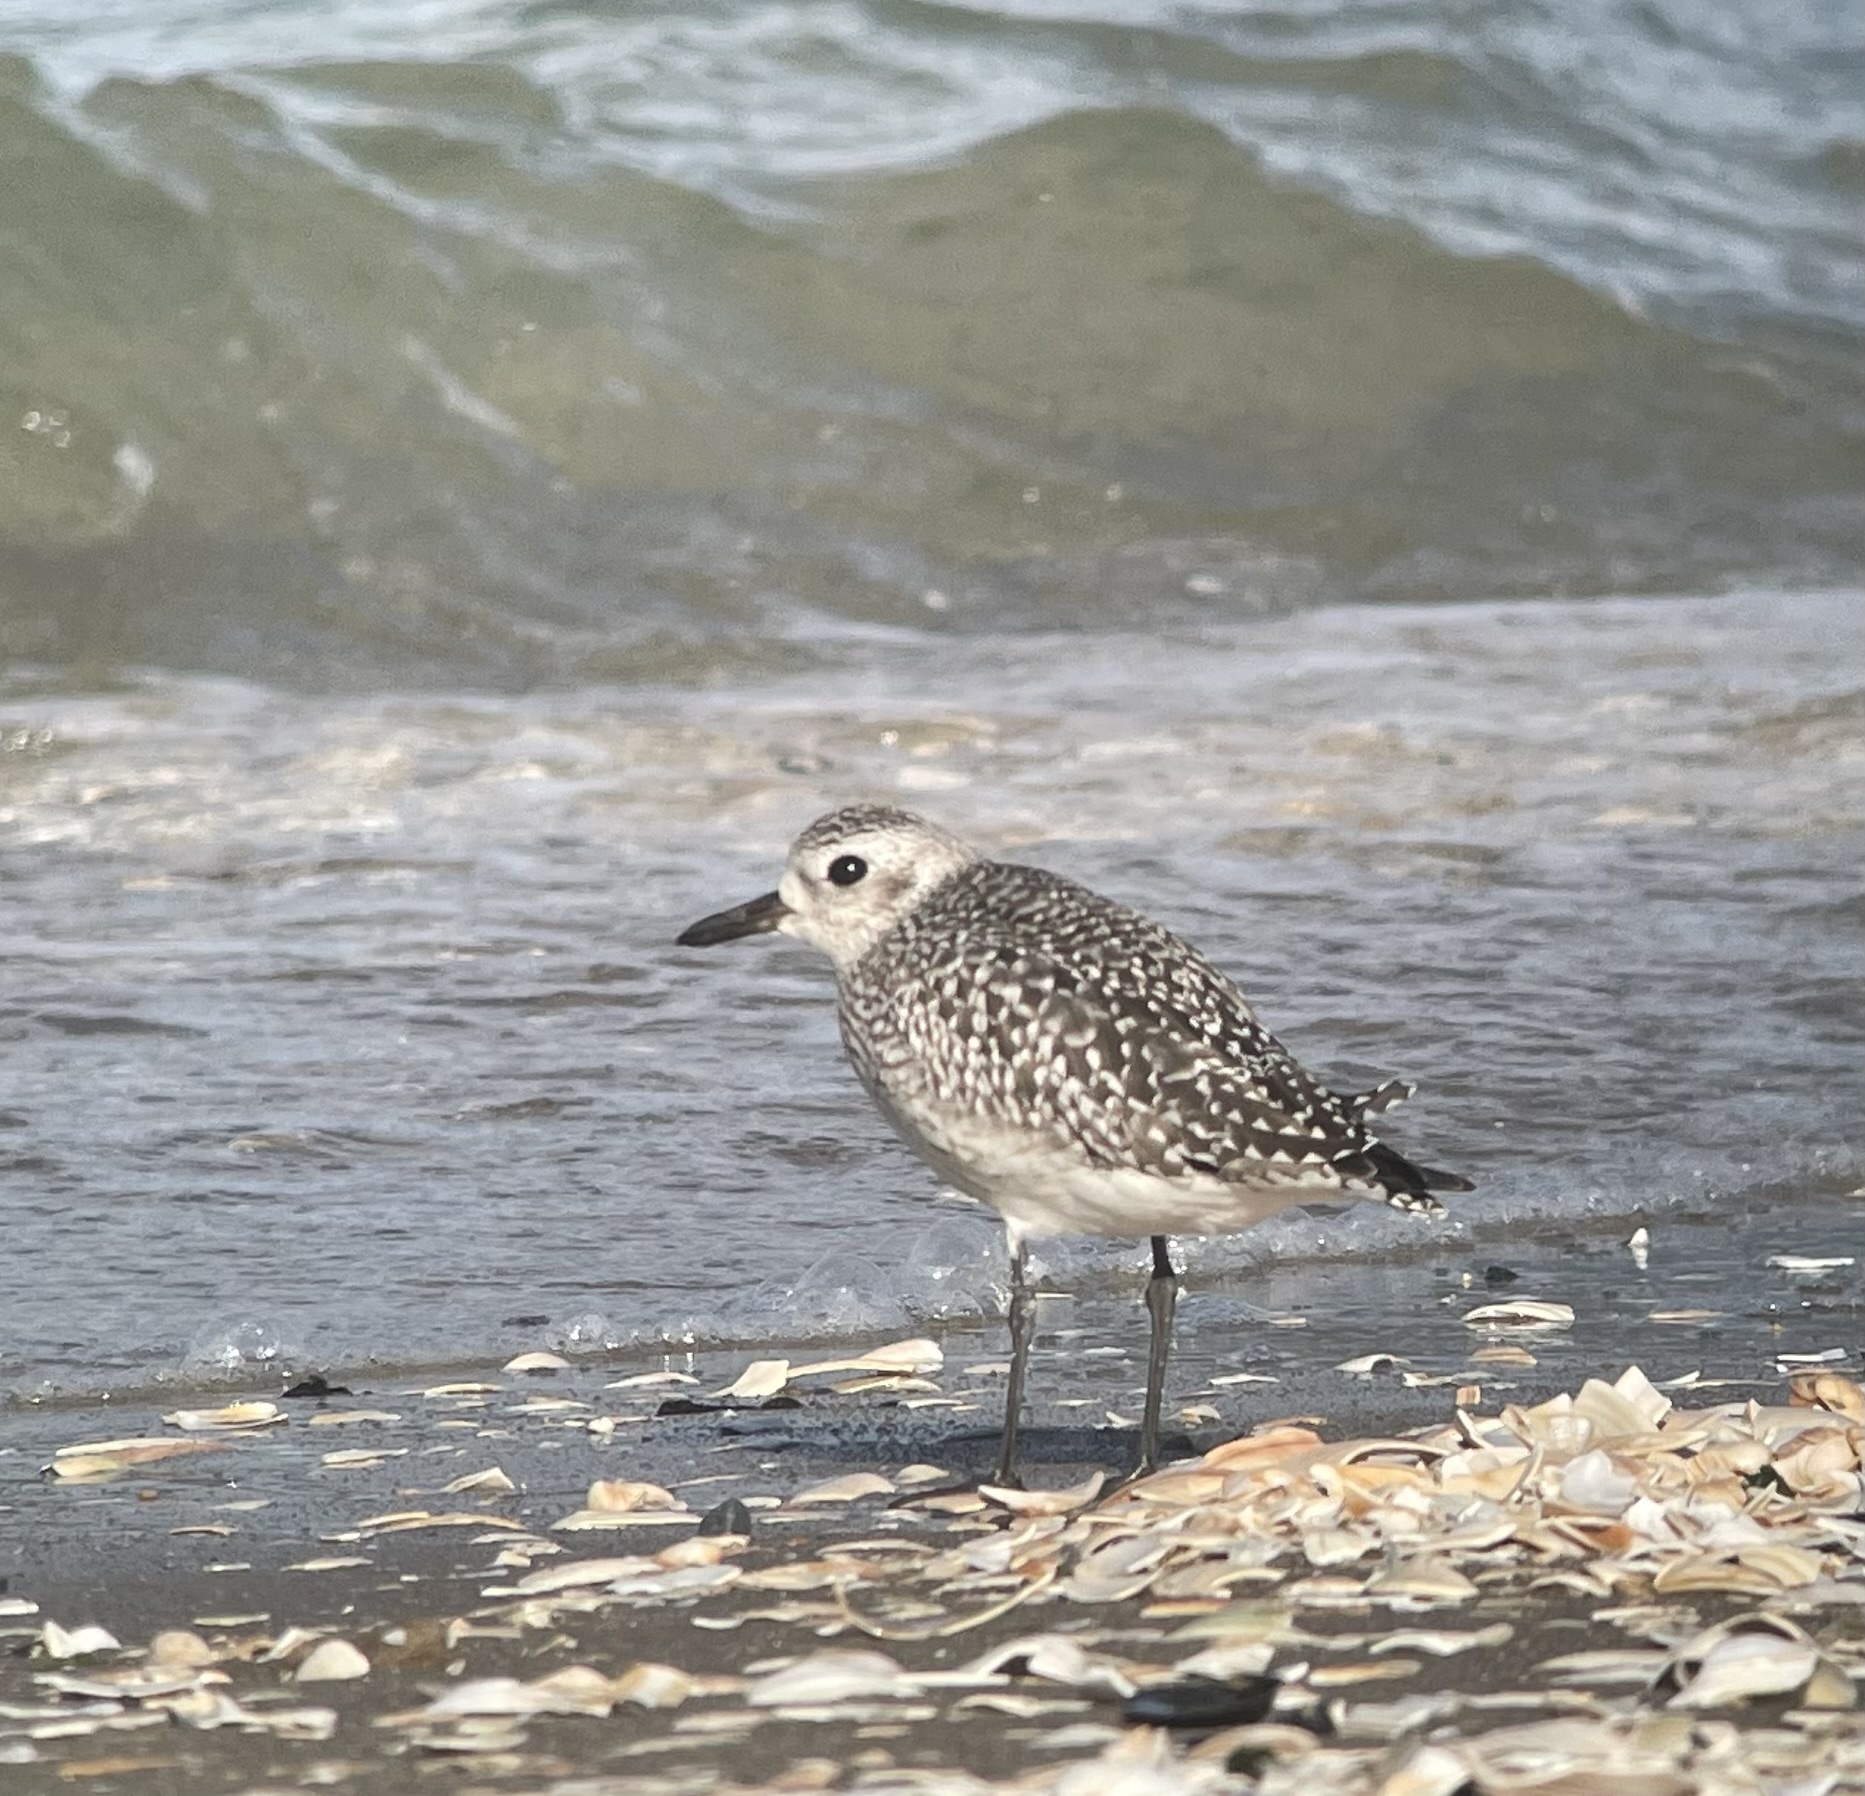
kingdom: Animalia
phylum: Chordata
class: Aves
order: Charadriiformes
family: Charadriidae
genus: Pluvialis
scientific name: Pluvialis squatarola
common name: Grey plover
